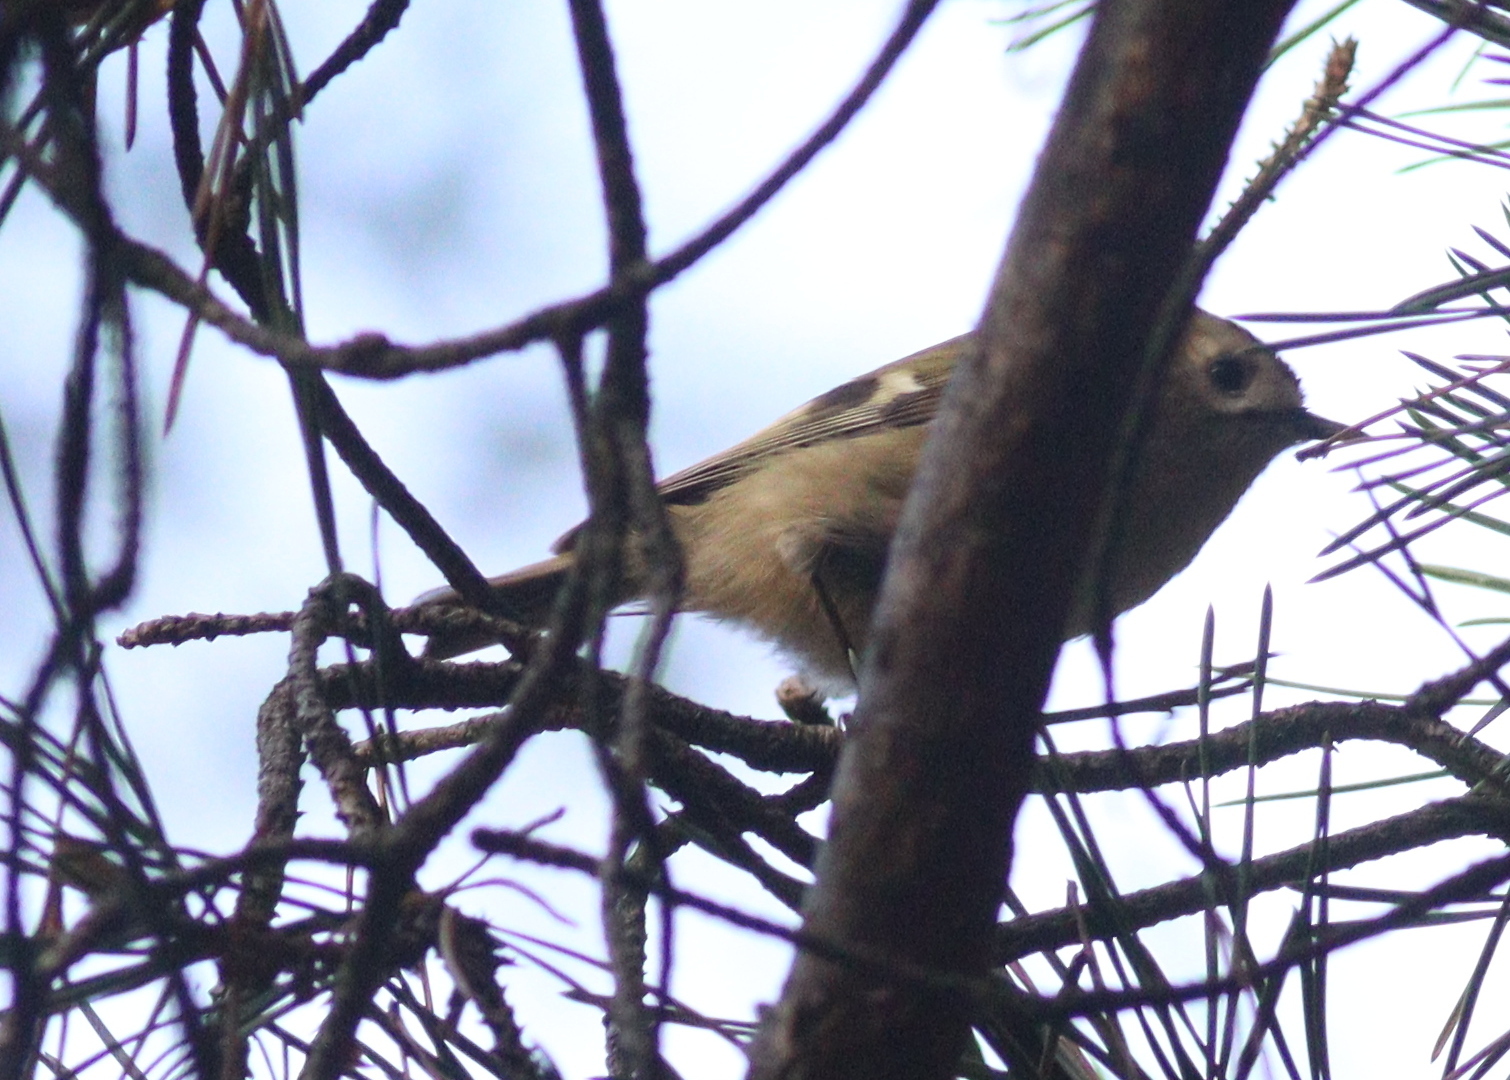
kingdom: Animalia
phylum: Chordata
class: Aves
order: Passeriformes
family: Regulidae
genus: Regulus
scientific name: Regulus regulus
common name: Goldcrest
